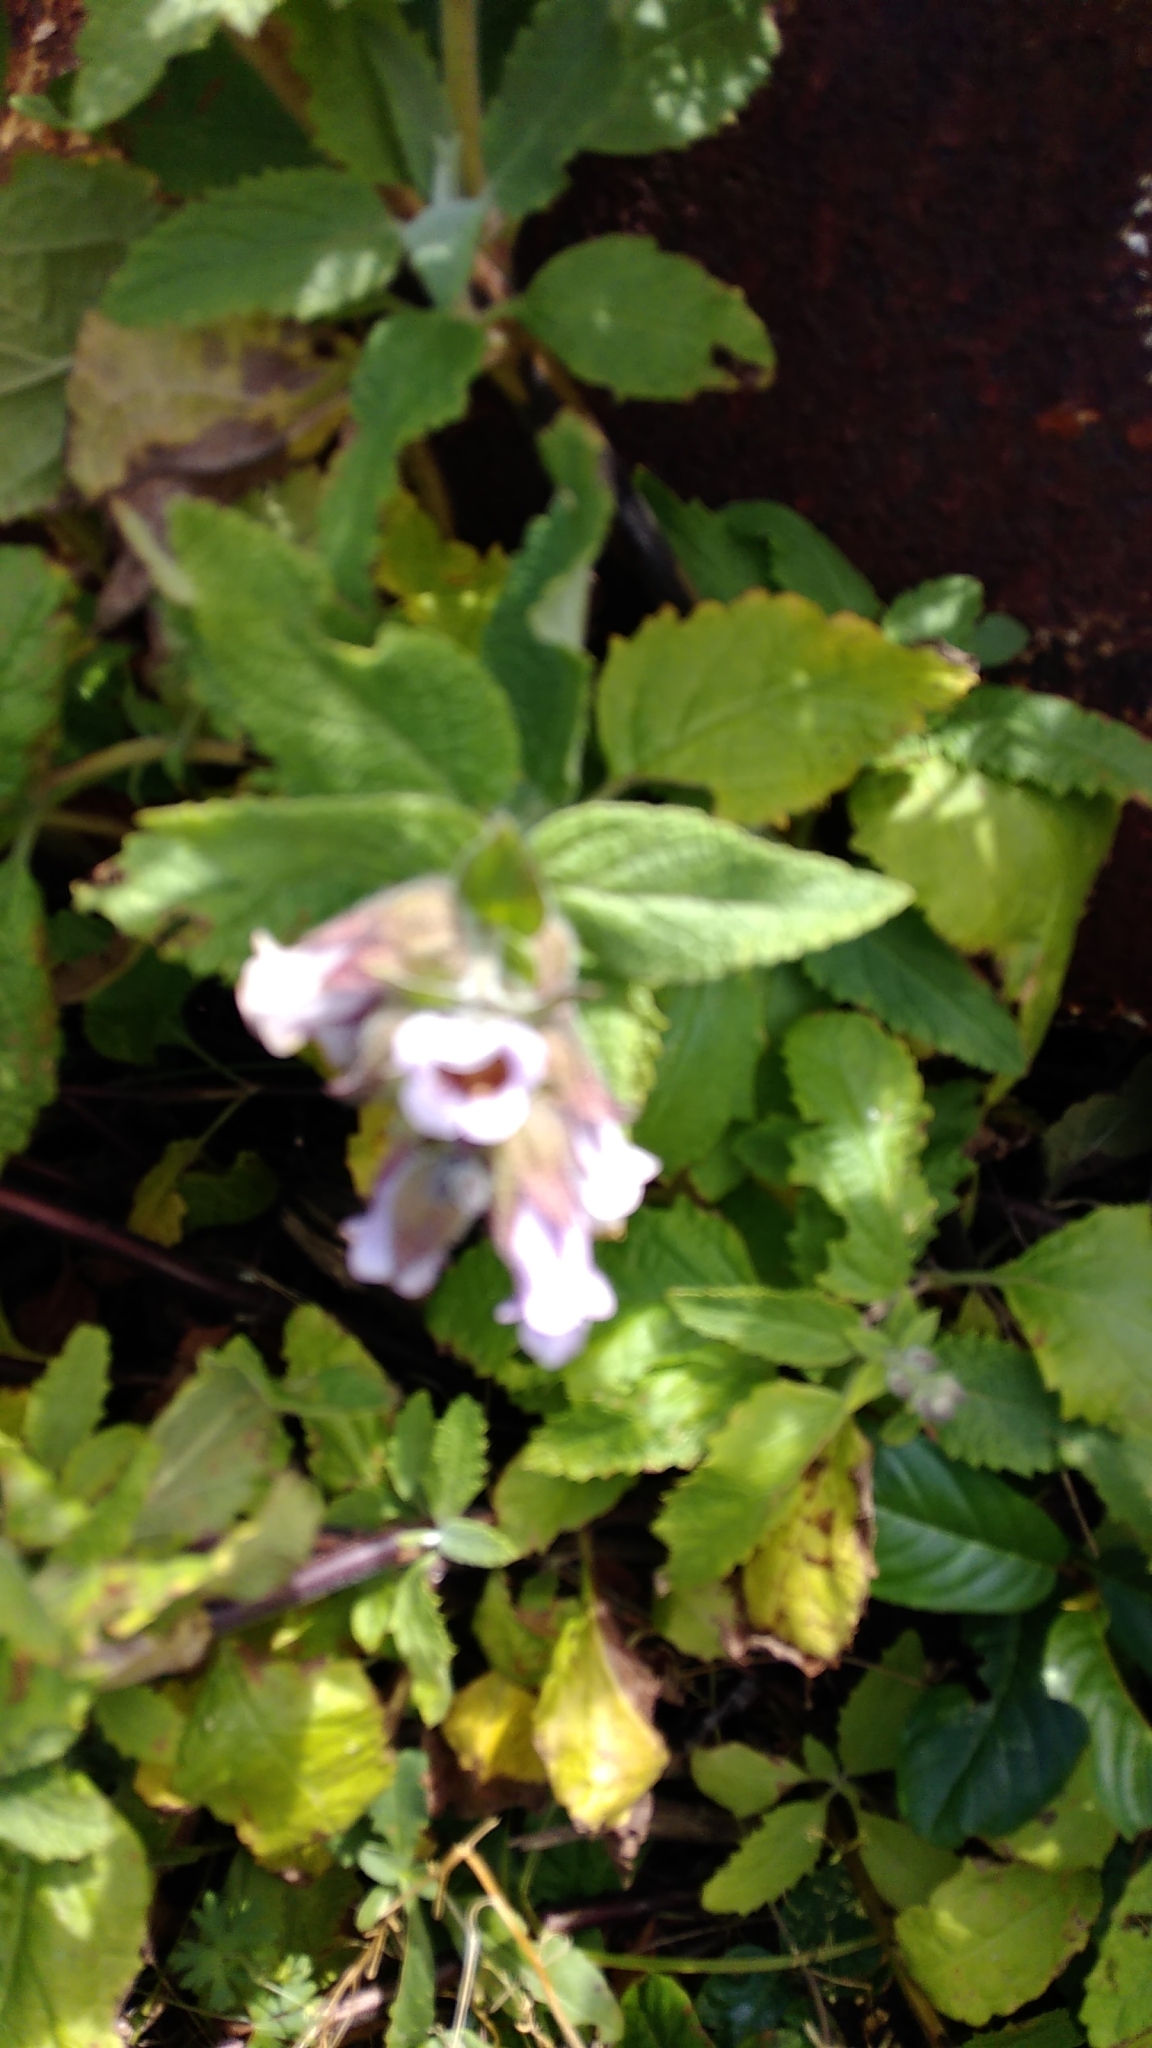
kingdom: Plantae
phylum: Tracheophyta
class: Magnoliopsida
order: Lamiales
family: Lamiaceae
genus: Lepechinia
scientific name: Lepechinia calycina
